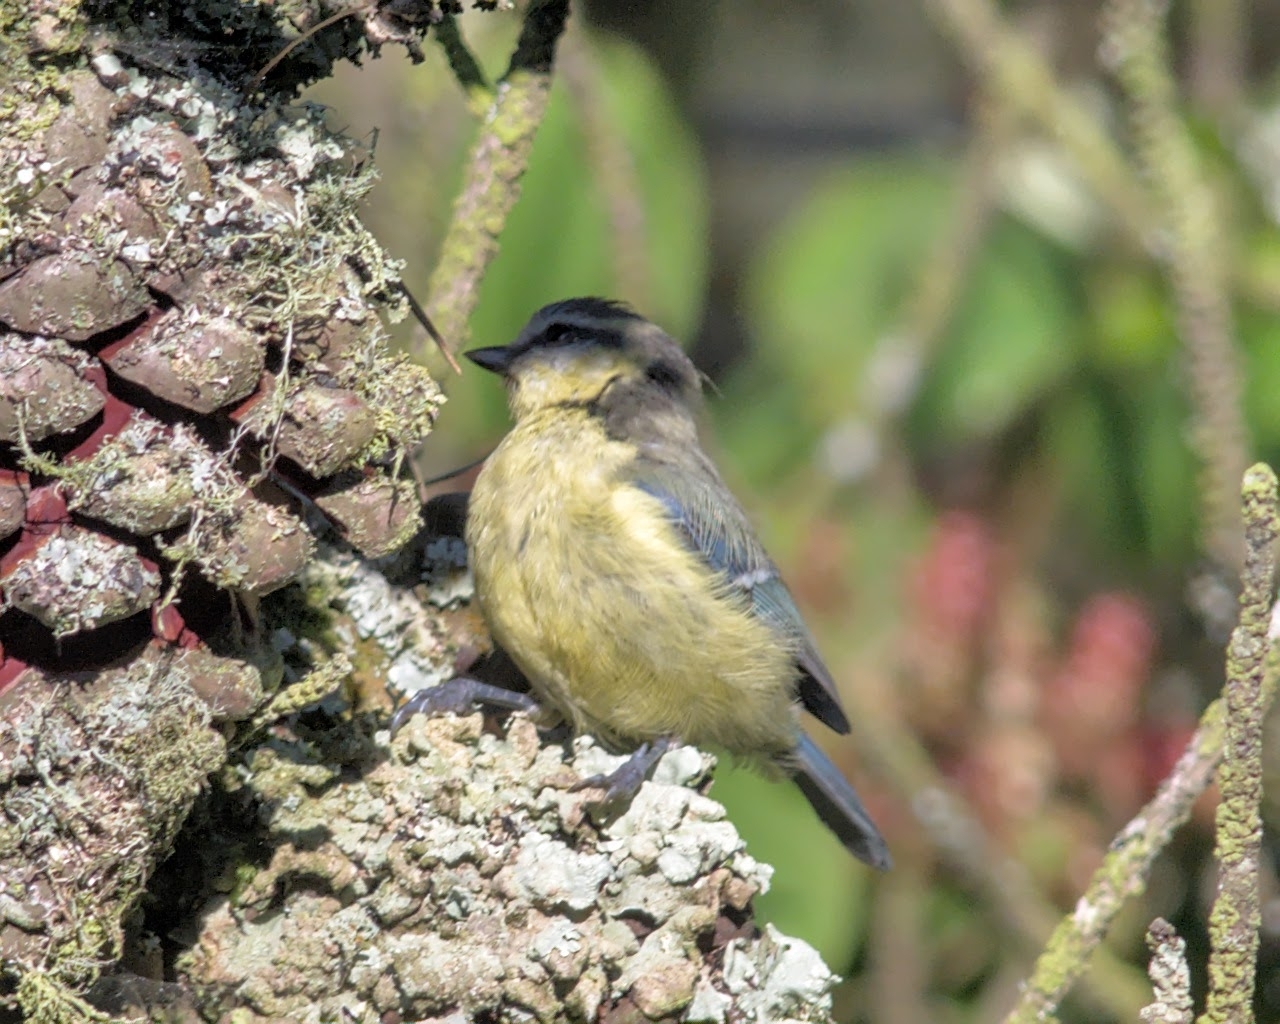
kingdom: Animalia
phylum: Chordata
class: Aves
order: Passeriformes
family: Paridae
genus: Cyanistes
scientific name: Cyanistes caeruleus
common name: Eurasian blue tit
